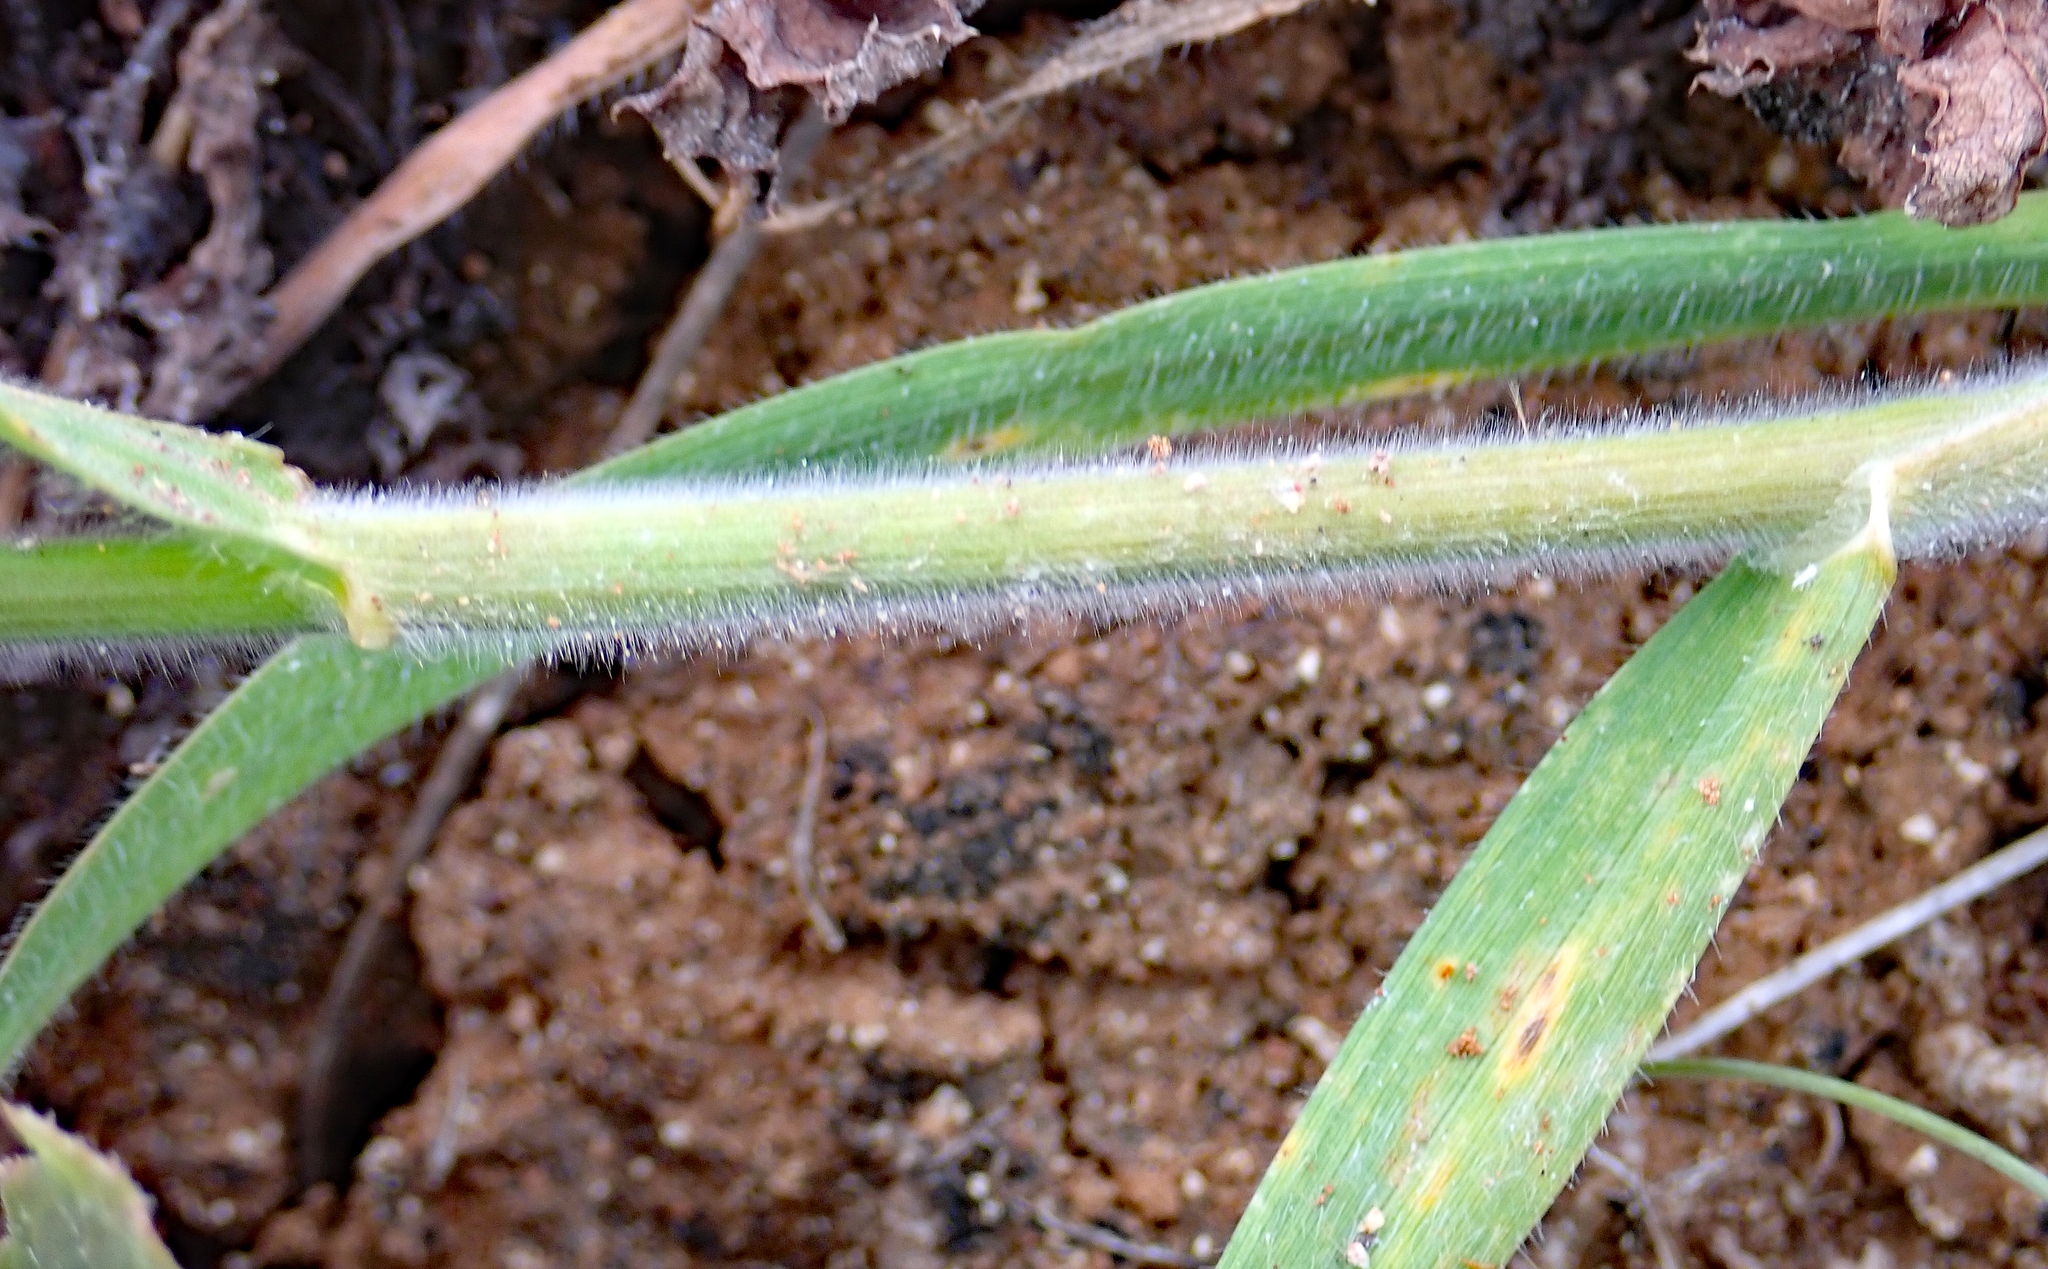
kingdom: Plantae
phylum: Tracheophyta
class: Liliopsida
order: Poales
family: Poaceae
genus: Bromus
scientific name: Bromus hordeaceus
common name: Soft brome
